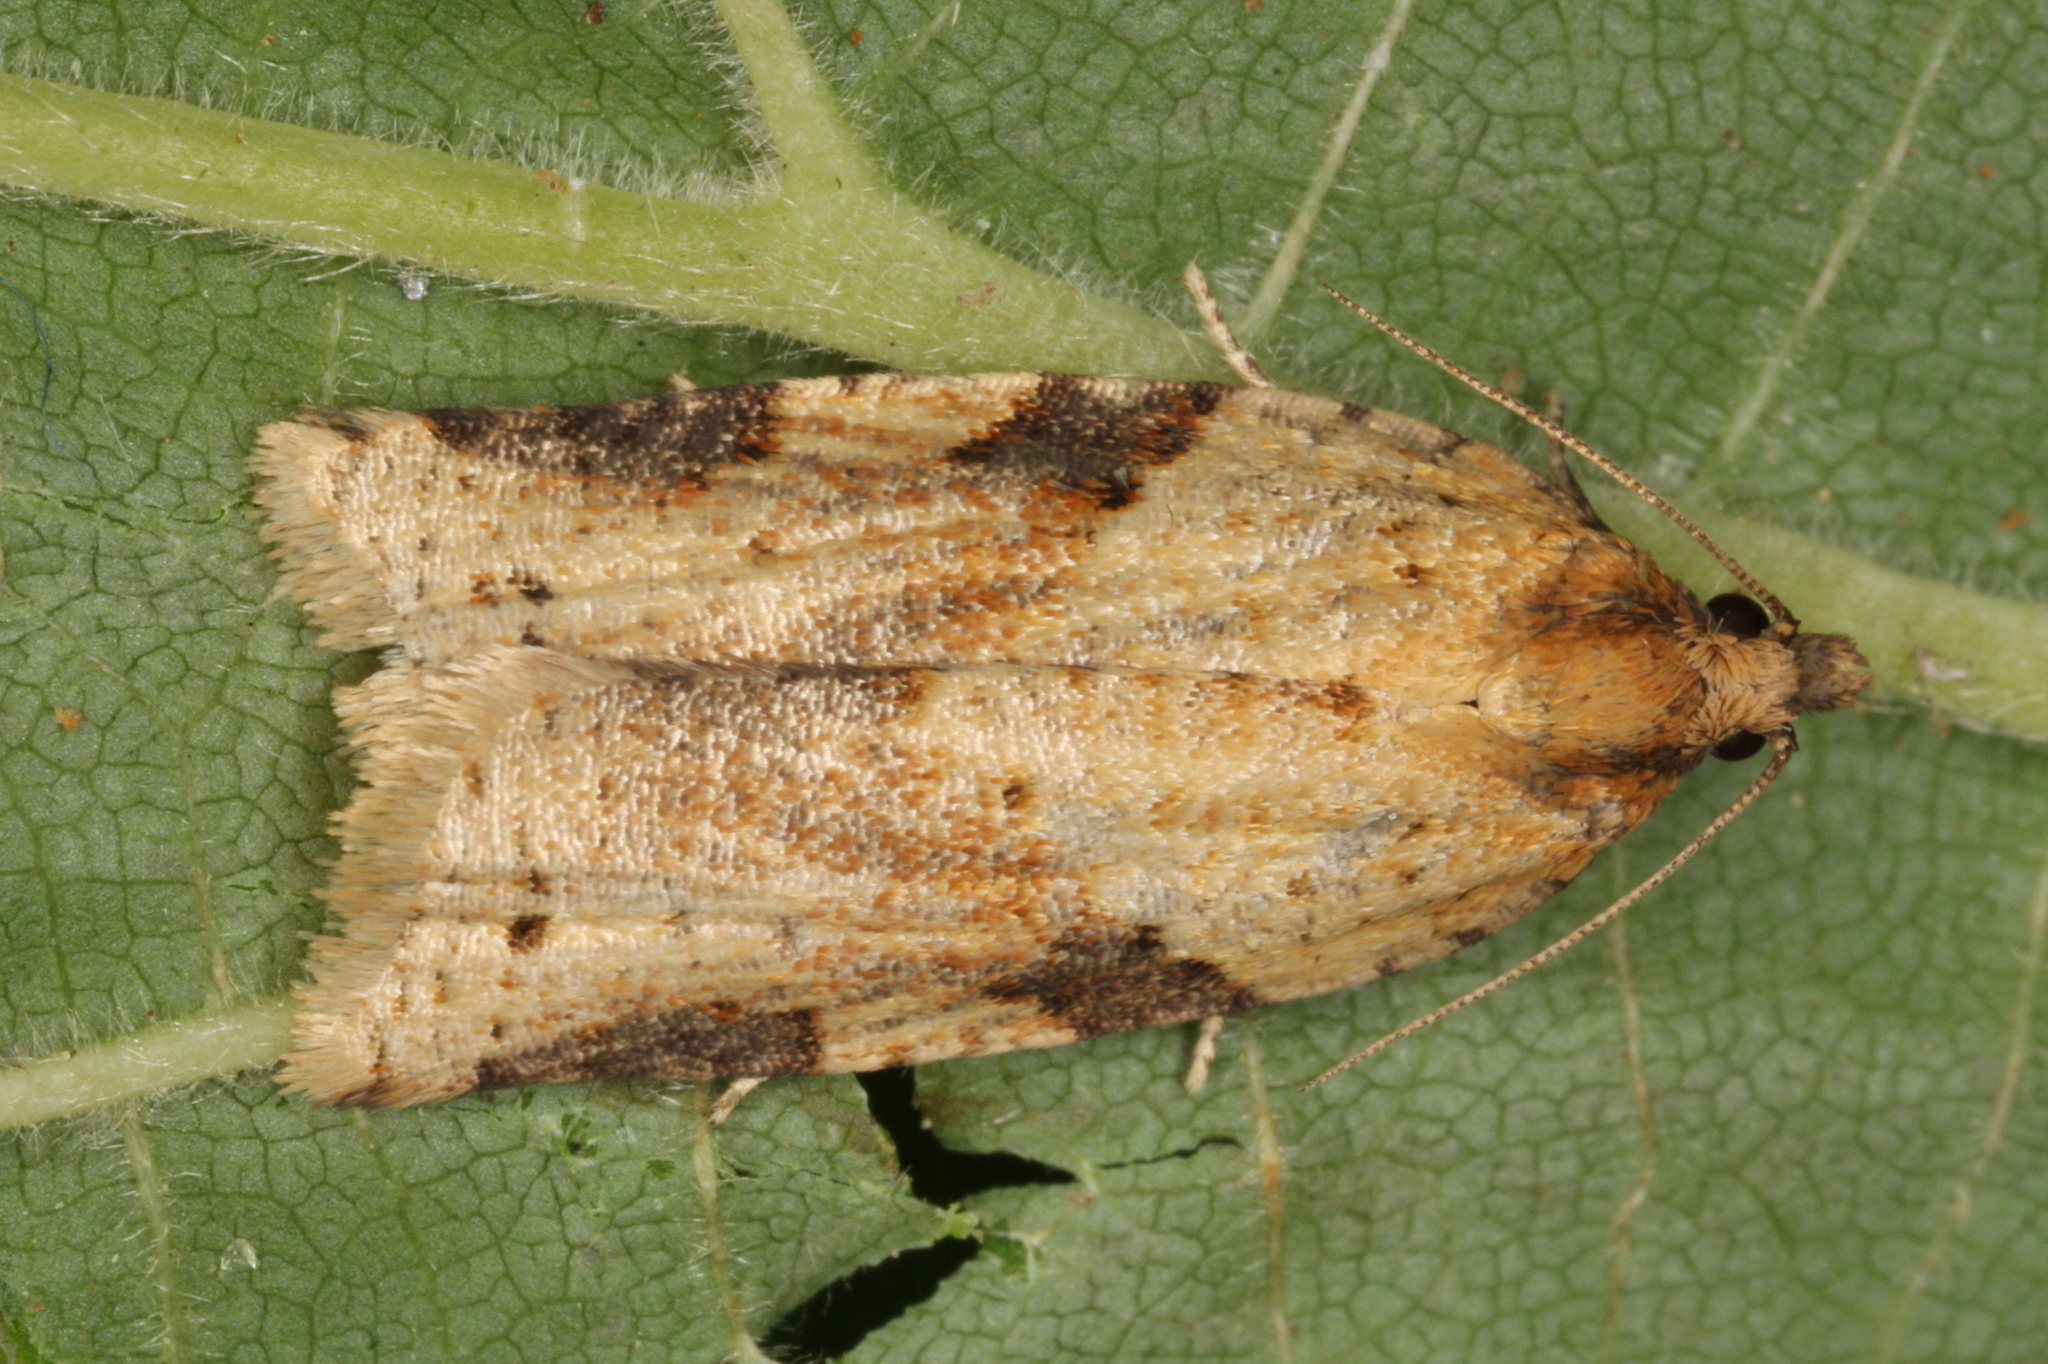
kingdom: Animalia
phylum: Arthropoda
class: Insecta
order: Lepidoptera
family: Tortricidae
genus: Clepsis
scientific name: Clepsis spectrana
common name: Cyclamen tortrix
